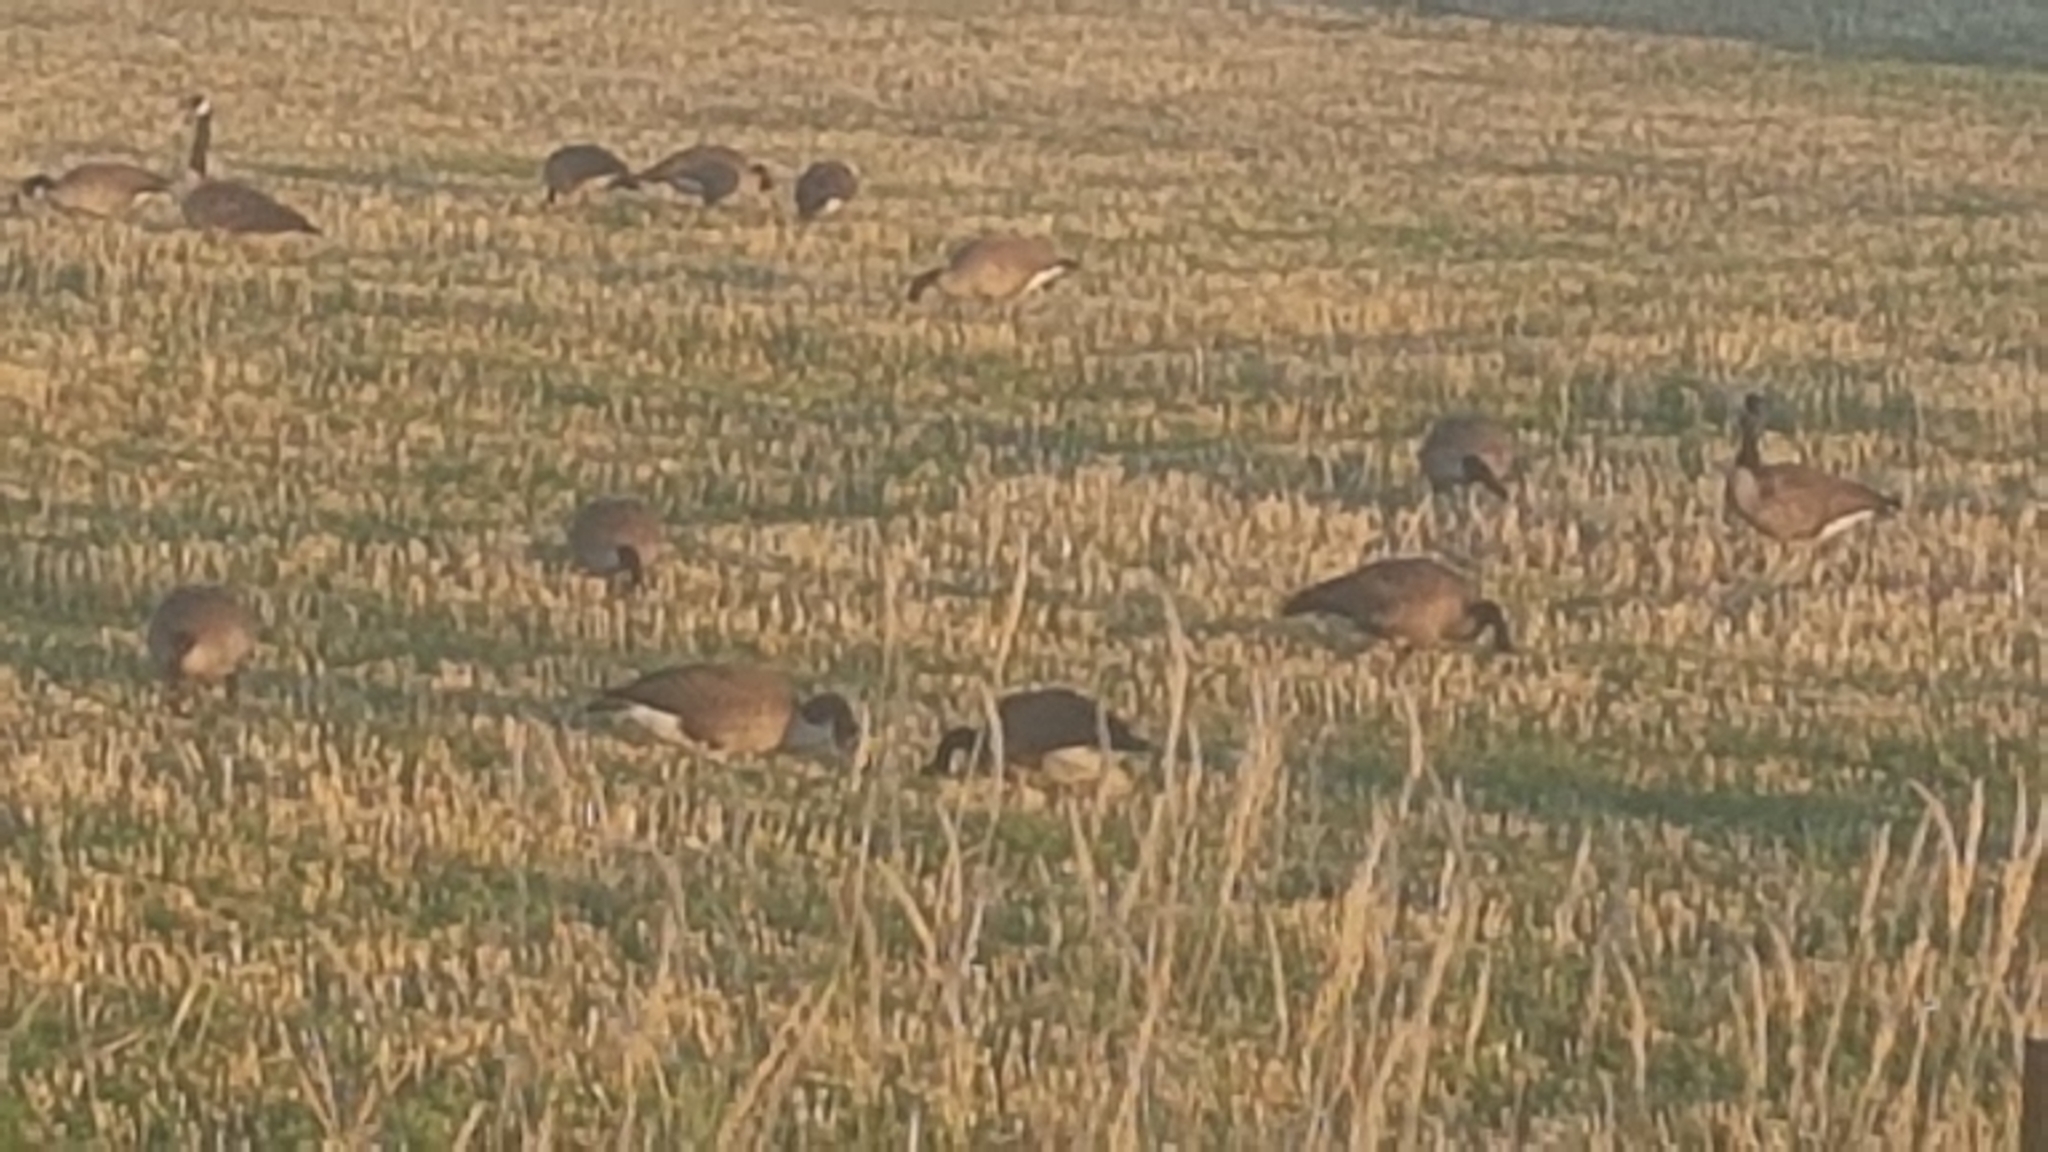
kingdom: Animalia
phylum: Chordata
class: Aves
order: Anseriformes
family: Anatidae
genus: Branta
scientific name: Branta canadensis
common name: Canada goose
